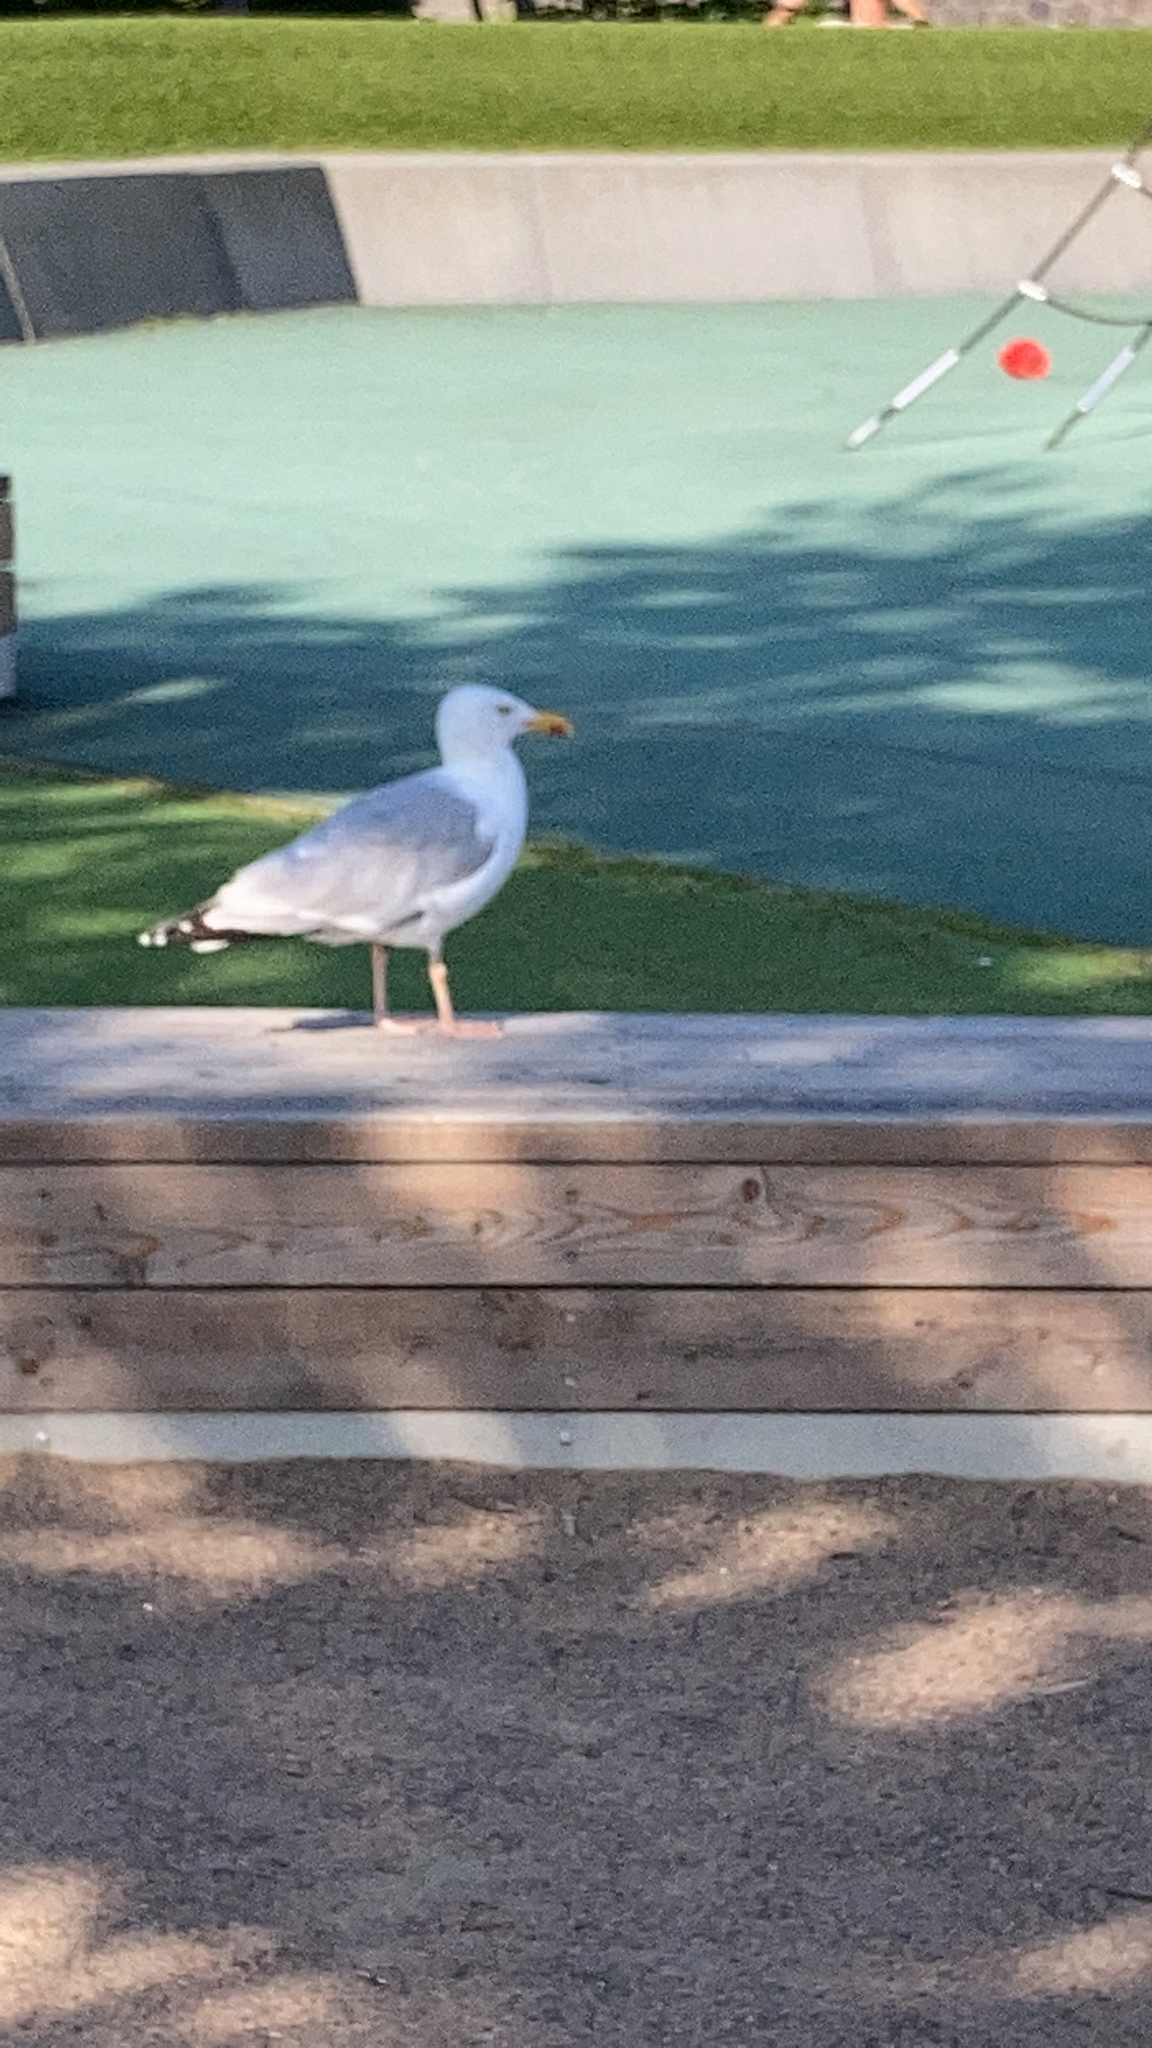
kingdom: Animalia
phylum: Chordata
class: Aves
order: Charadriiformes
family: Laridae
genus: Larus
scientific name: Larus argentatus
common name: Herring gull
